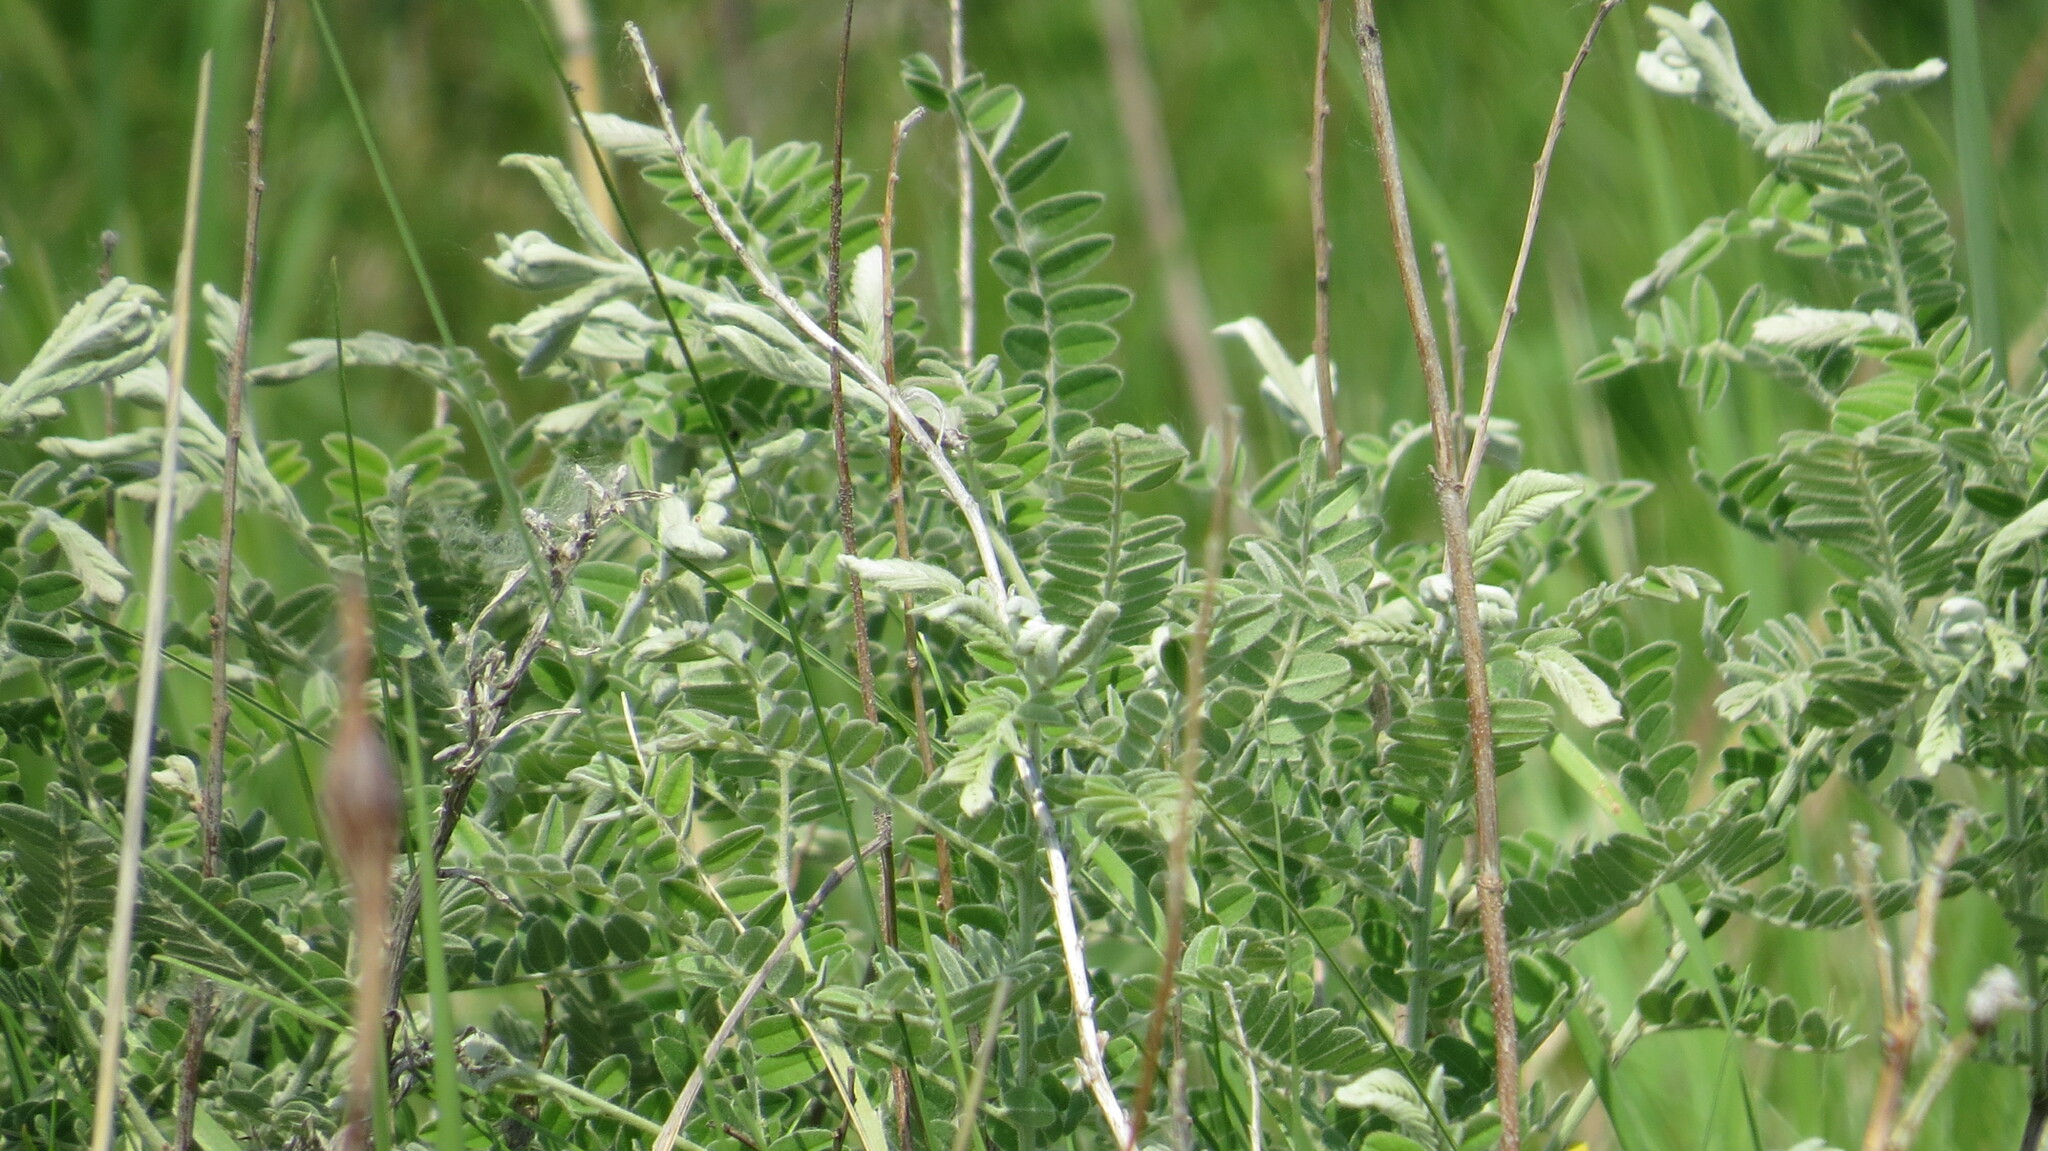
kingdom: Plantae
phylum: Tracheophyta
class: Magnoliopsida
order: Fabales
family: Fabaceae
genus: Amorpha
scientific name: Amorpha canescens
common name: Leadplant
